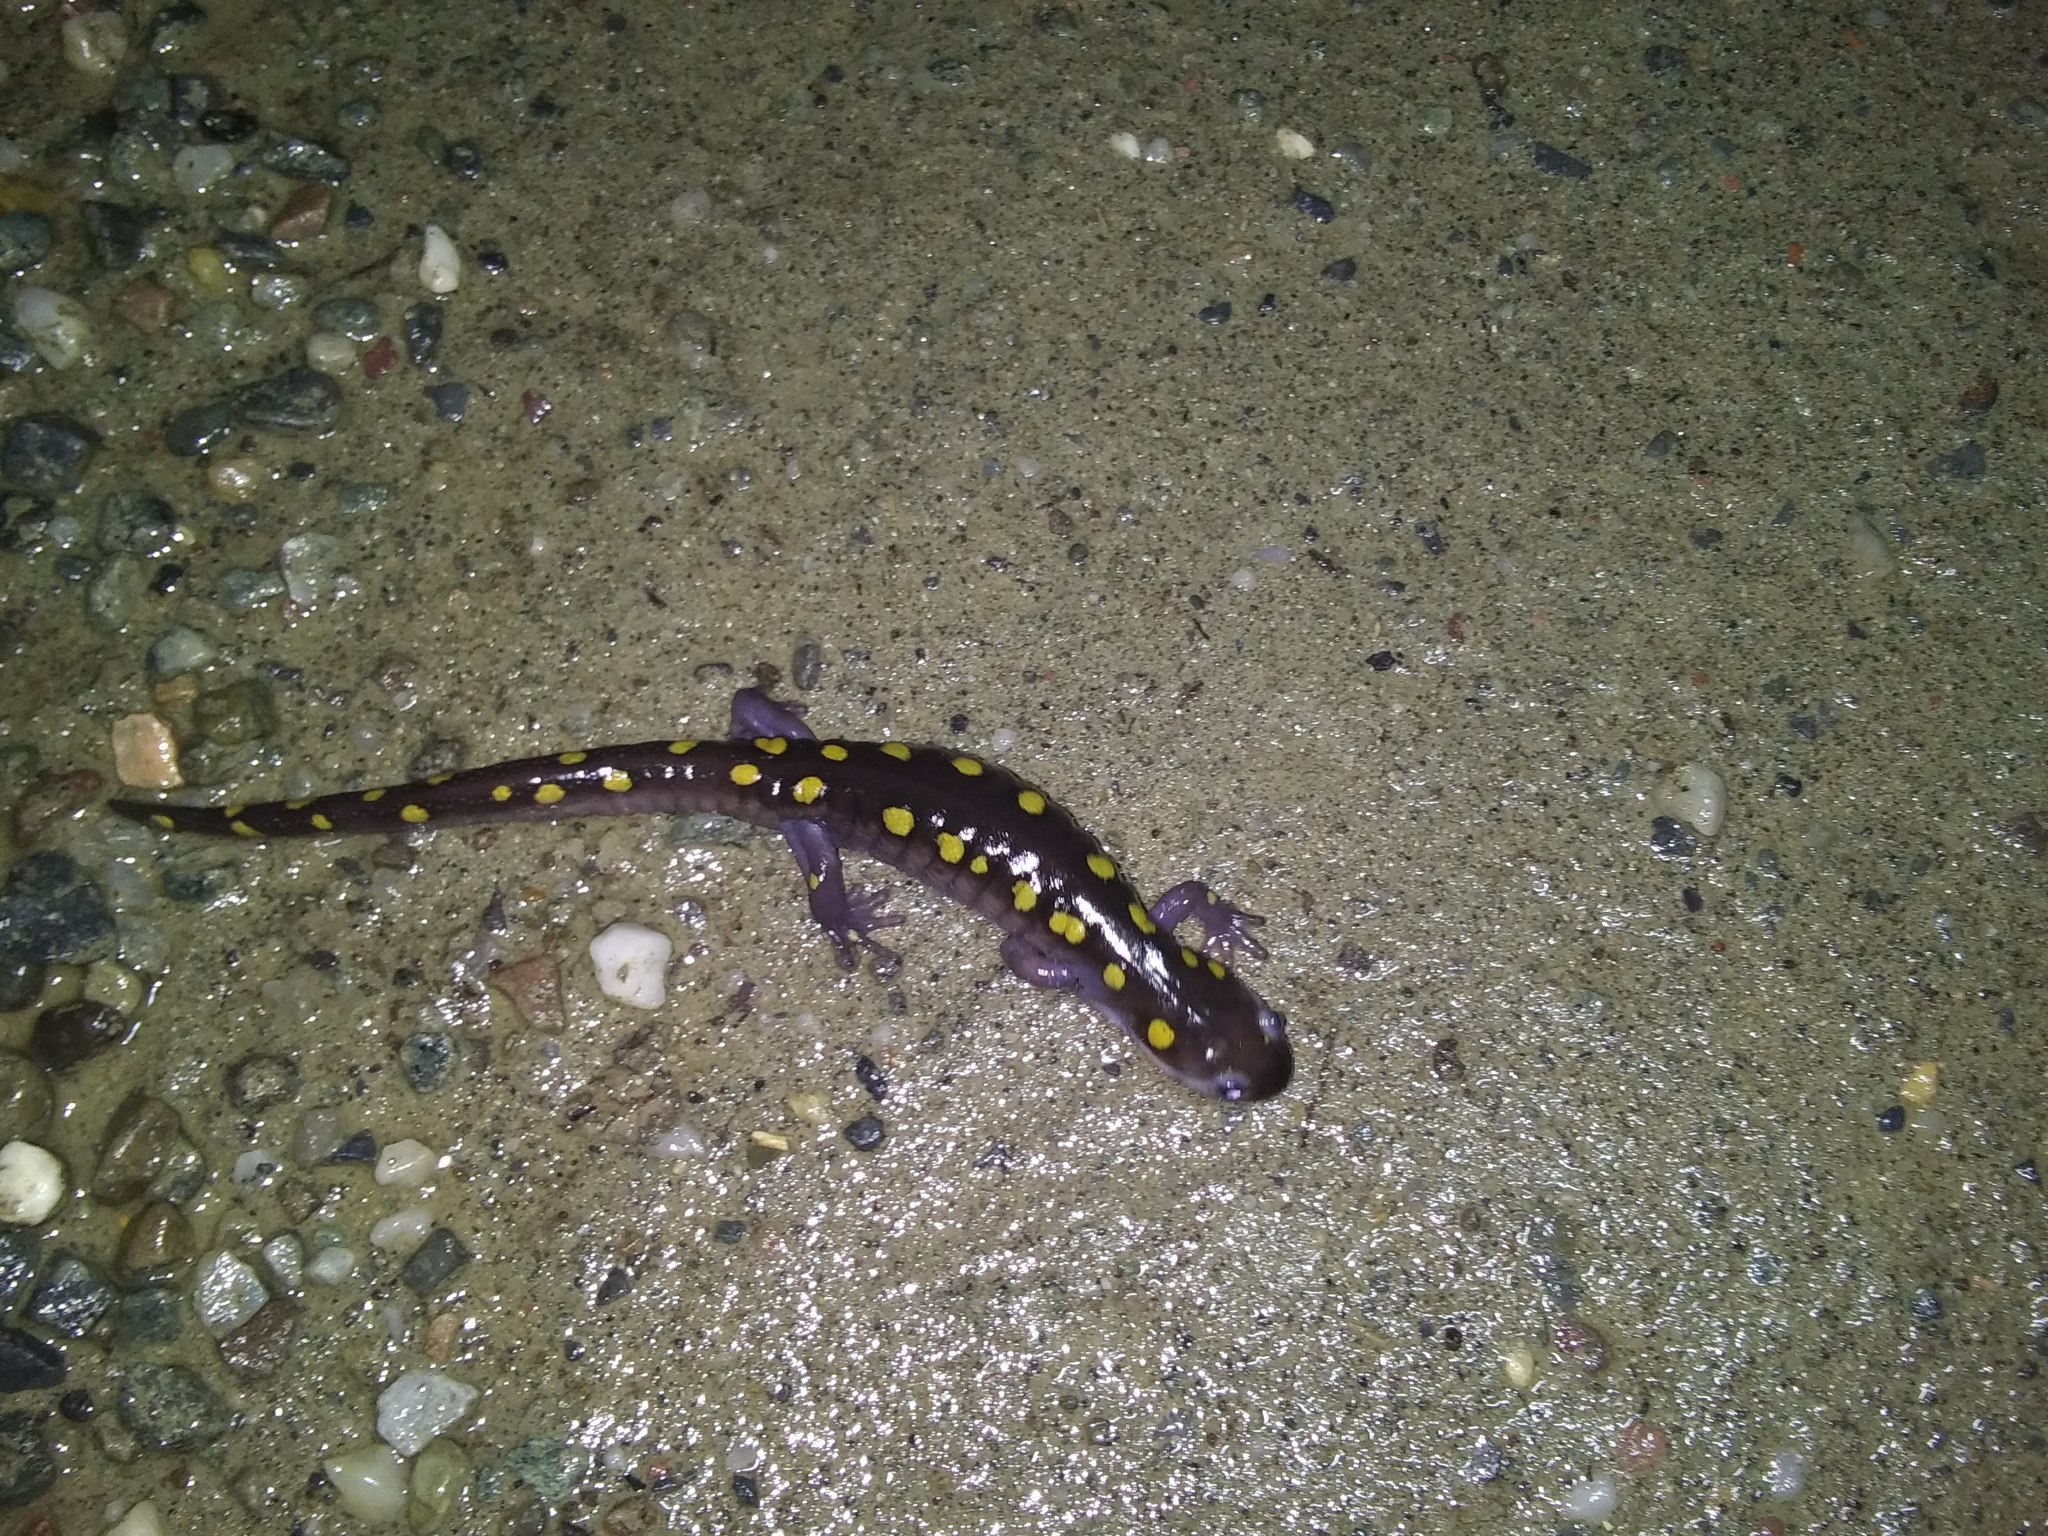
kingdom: Animalia
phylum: Chordata
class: Amphibia
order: Caudata
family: Ambystomatidae
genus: Ambystoma
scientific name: Ambystoma maculatum
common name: Spotted salamander
